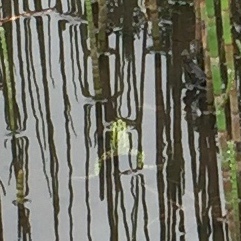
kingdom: Animalia
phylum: Chordata
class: Amphibia
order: Anura
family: Ranidae
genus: Lithobates
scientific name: Lithobates pipiens
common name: Northern leopard frog
